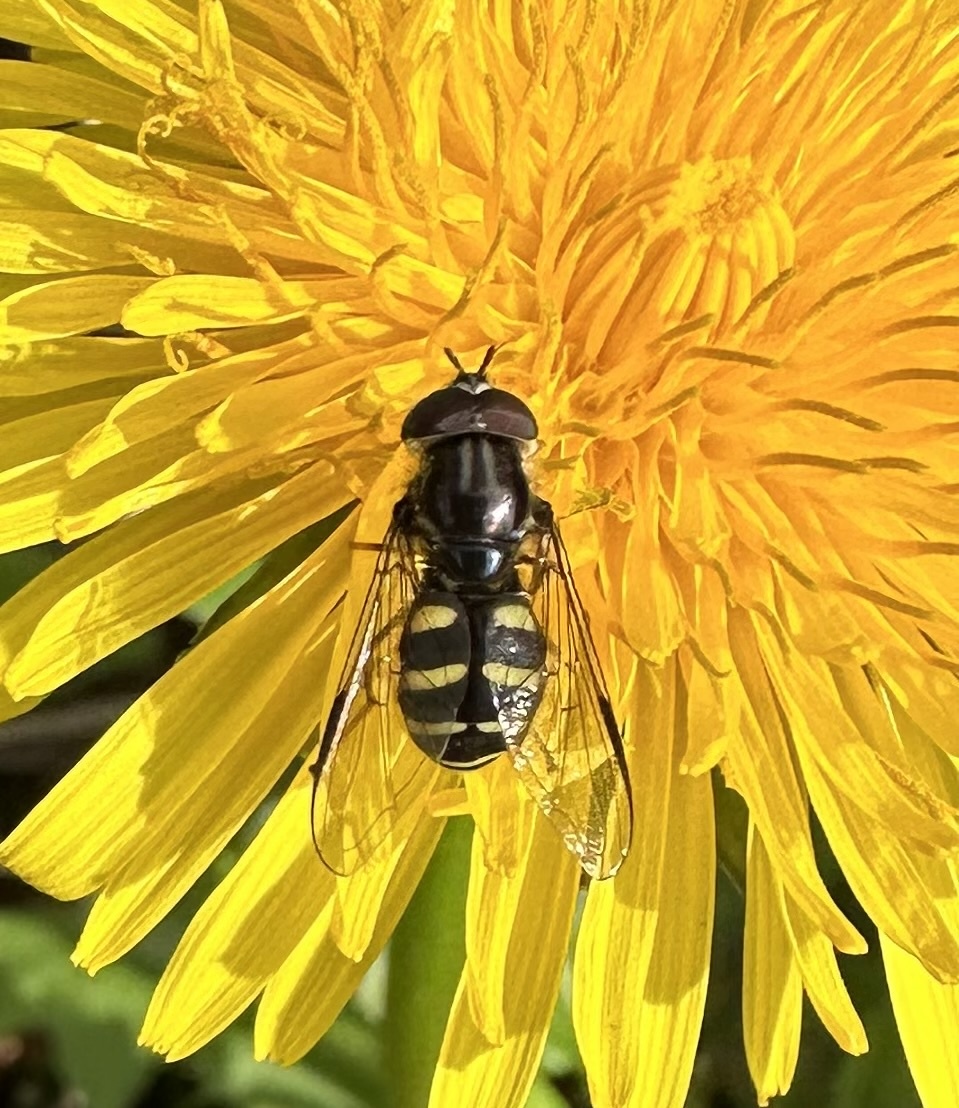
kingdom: Animalia
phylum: Arthropoda
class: Insecta
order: Diptera
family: Syrphidae
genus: Dasysyrphus
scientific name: Dasysyrphus albostriatus
